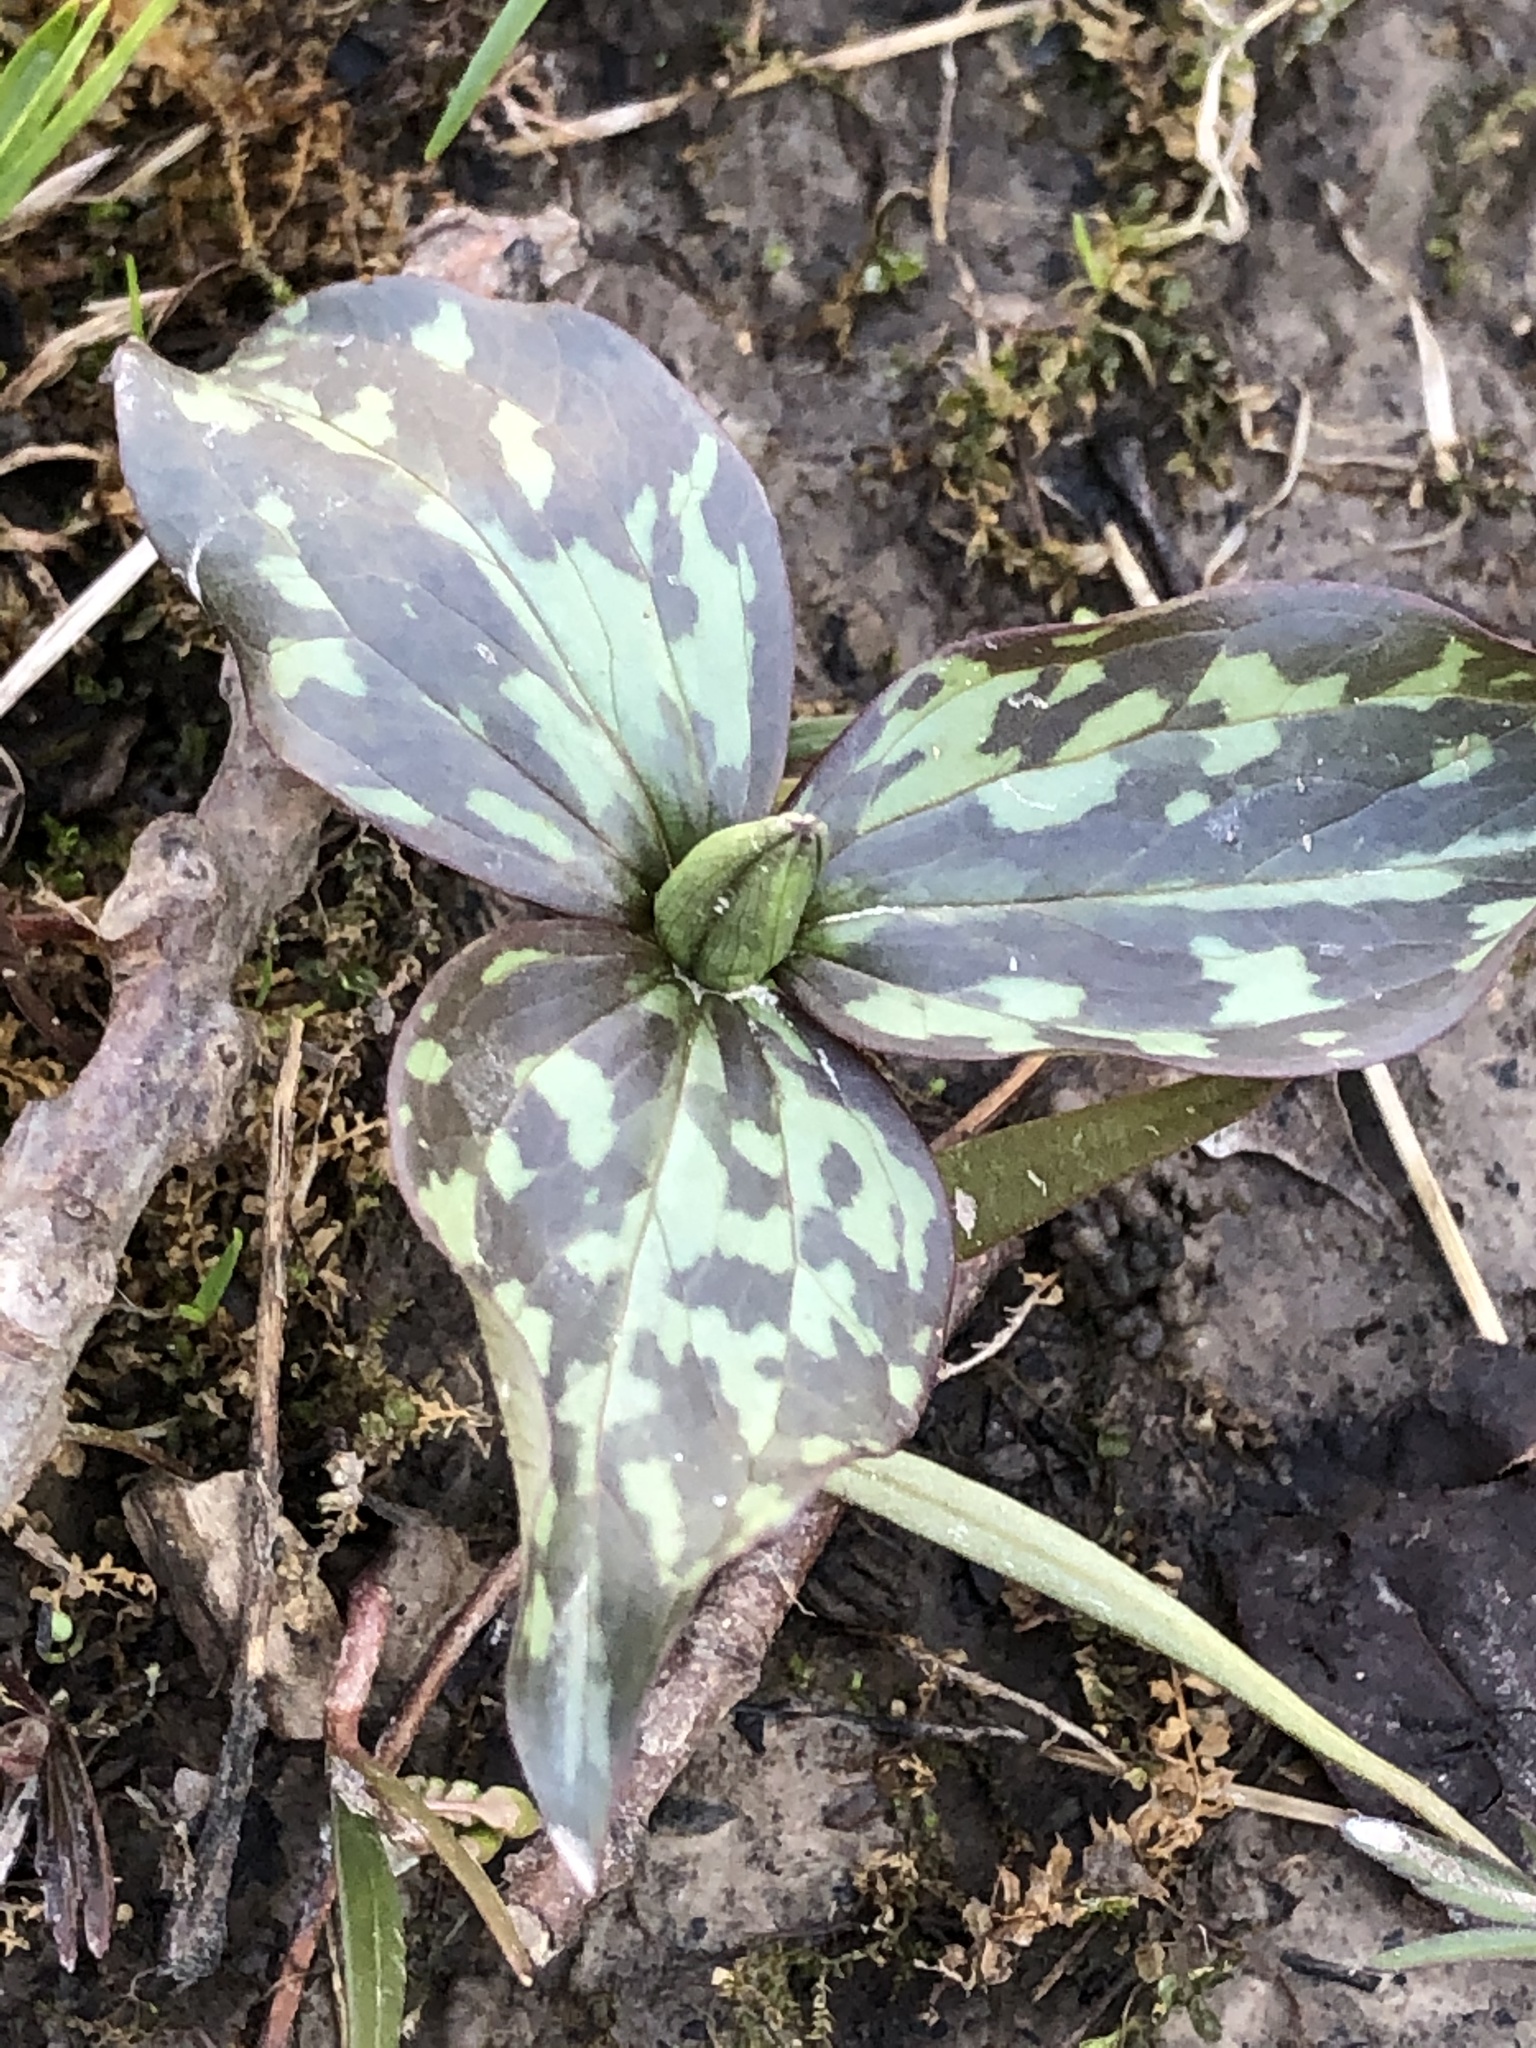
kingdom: Plantae
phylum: Tracheophyta
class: Liliopsida
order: Liliales
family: Melanthiaceae
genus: Trillium
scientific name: Trillium recurvatum
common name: Bloody butcher
